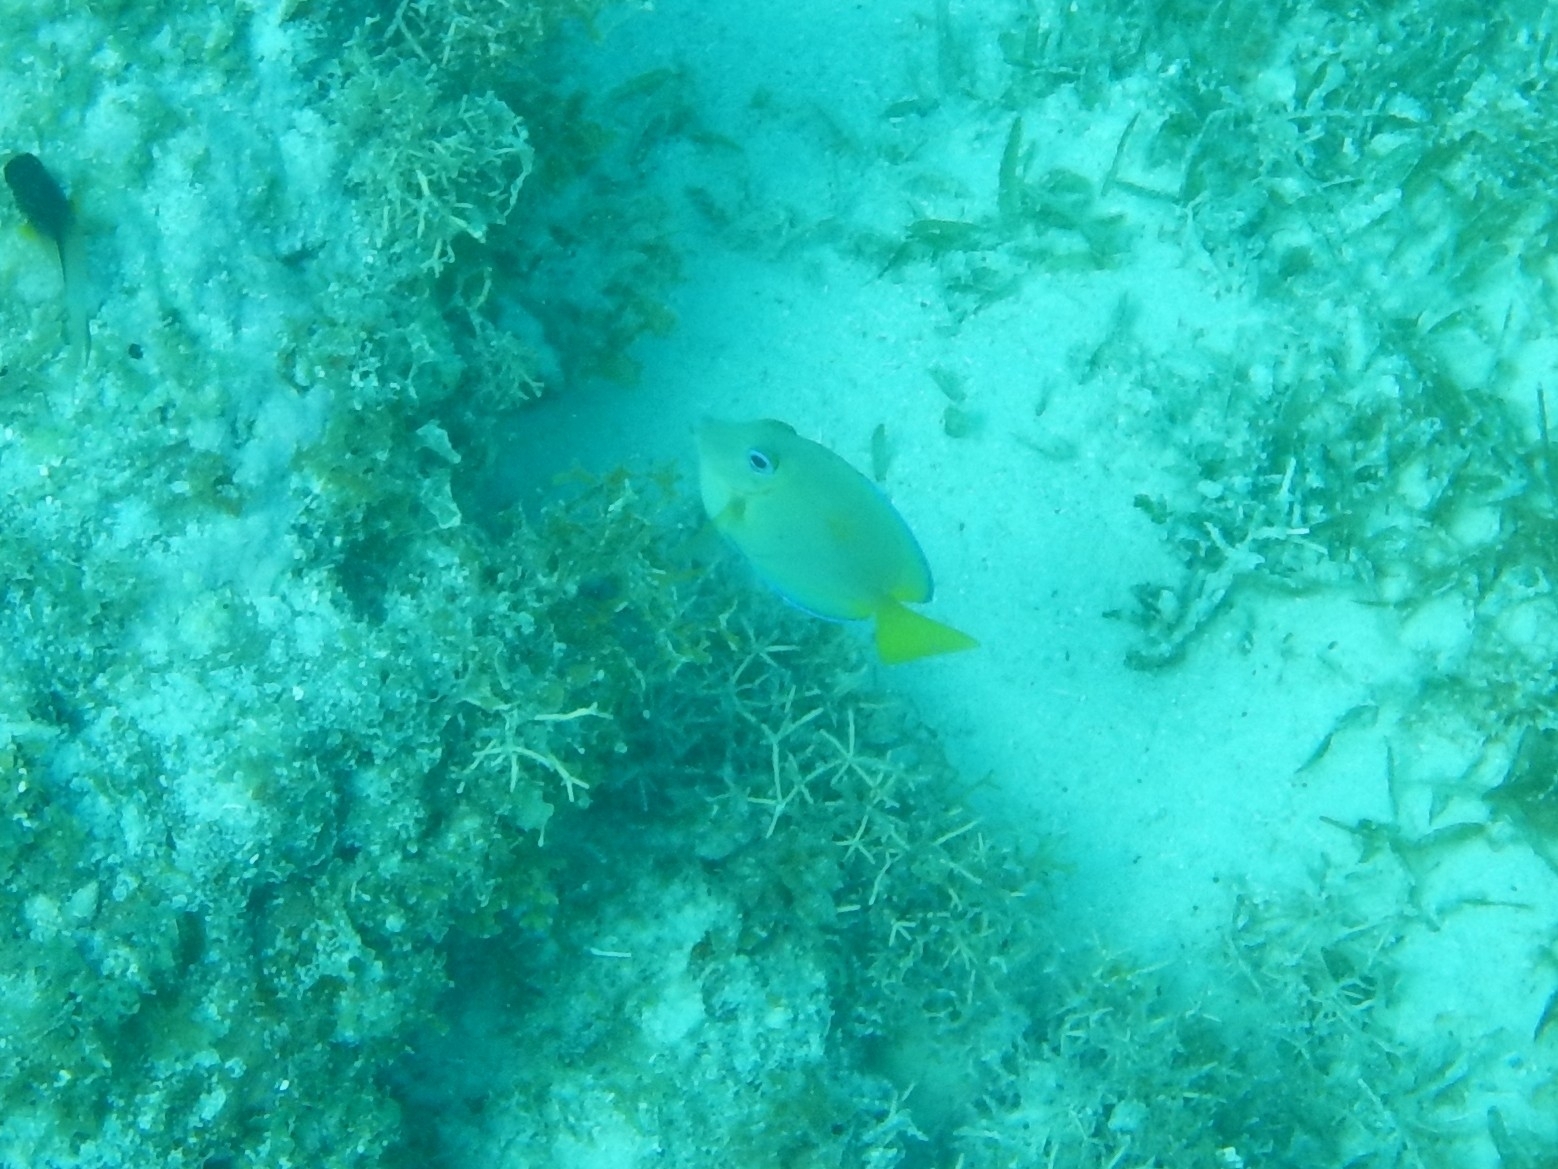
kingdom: Animalia
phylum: Chordata
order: Perciformes
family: Acanthuridae
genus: Acanthurus
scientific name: Acanthurus coeruleus
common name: Blue tang
